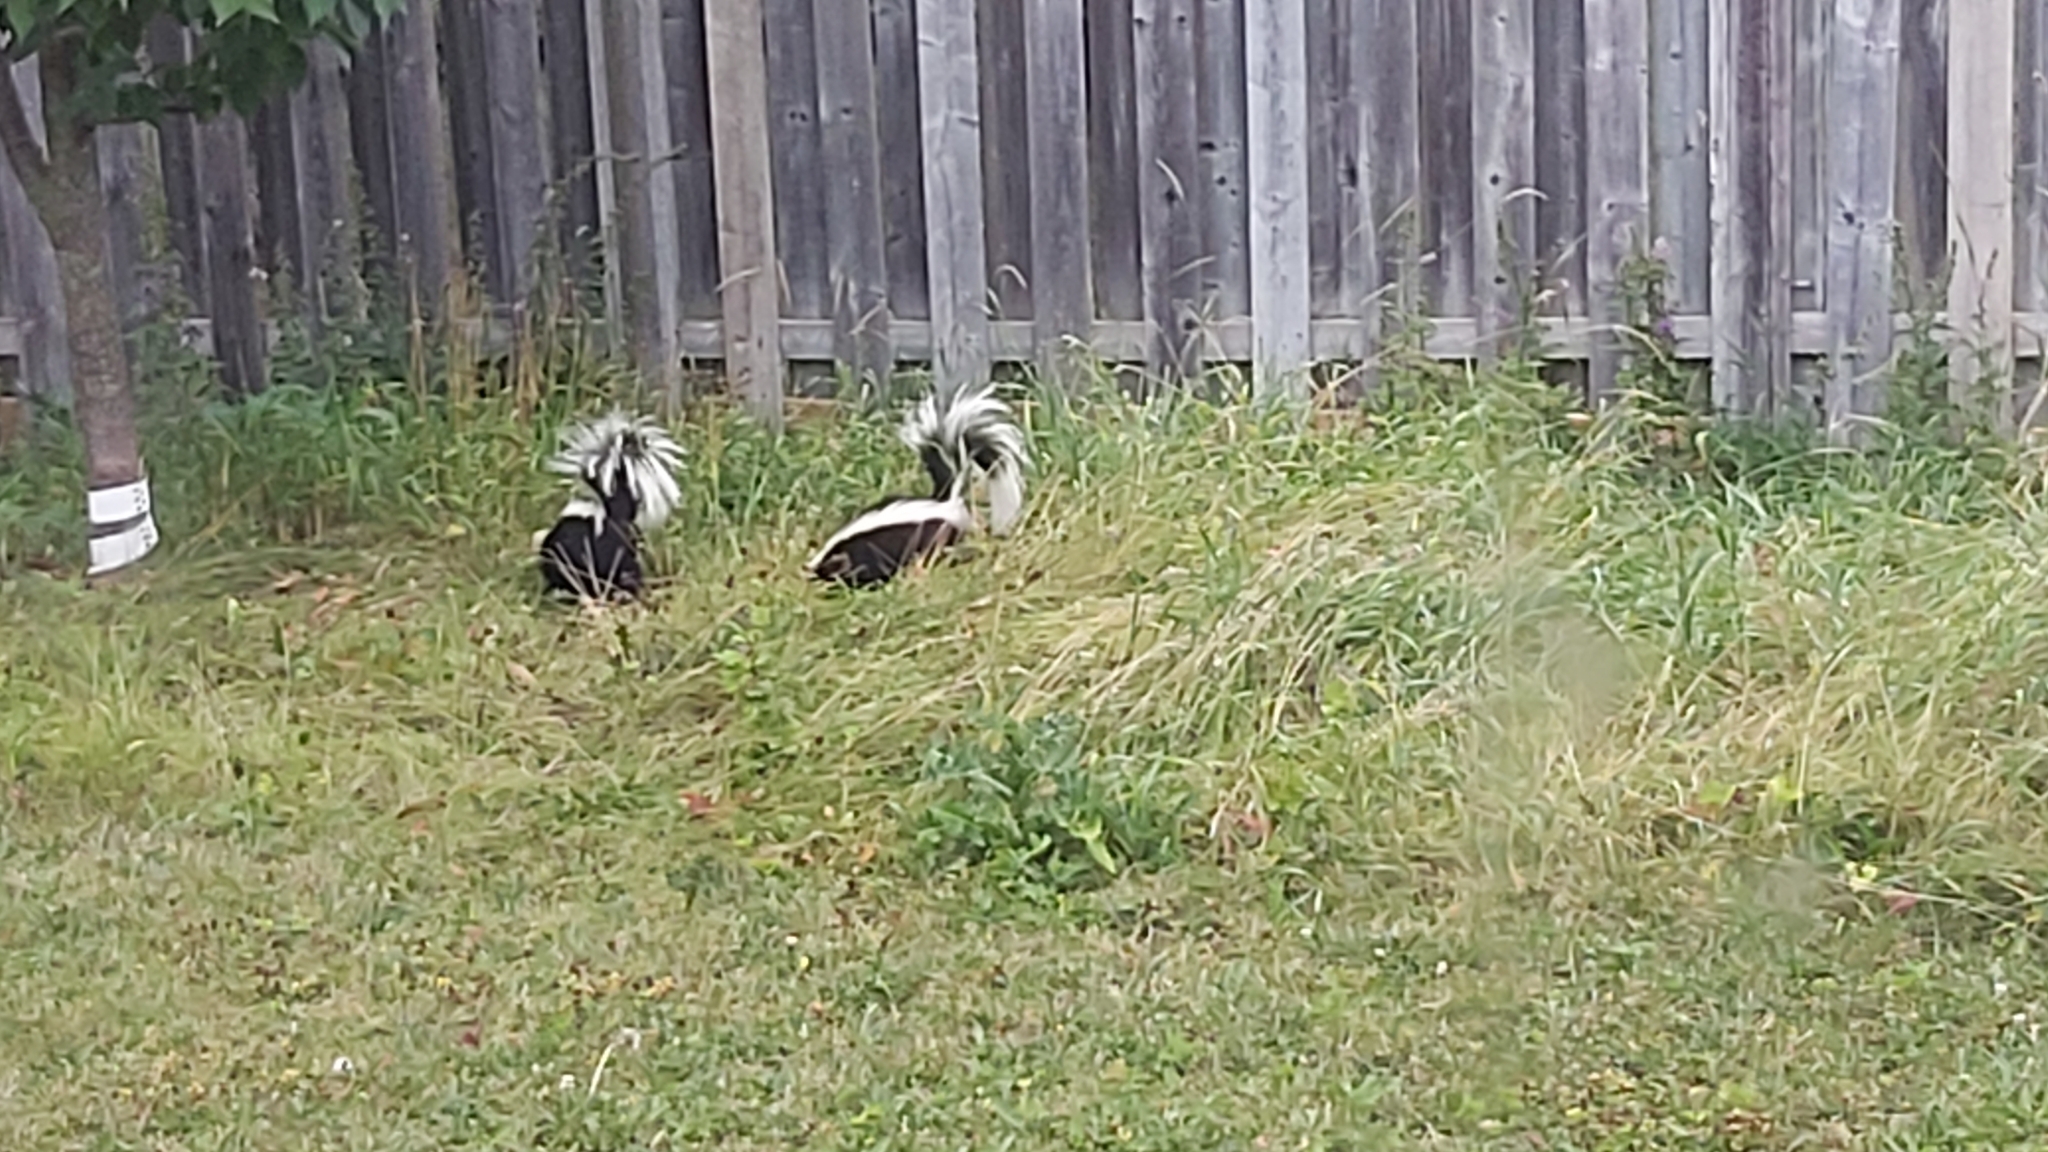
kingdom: Animalia
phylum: Chordata
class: Mammalia
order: Carnivora
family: Mephitidae
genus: Mephitis
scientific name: Mephitis mephitis
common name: Striped skunk
